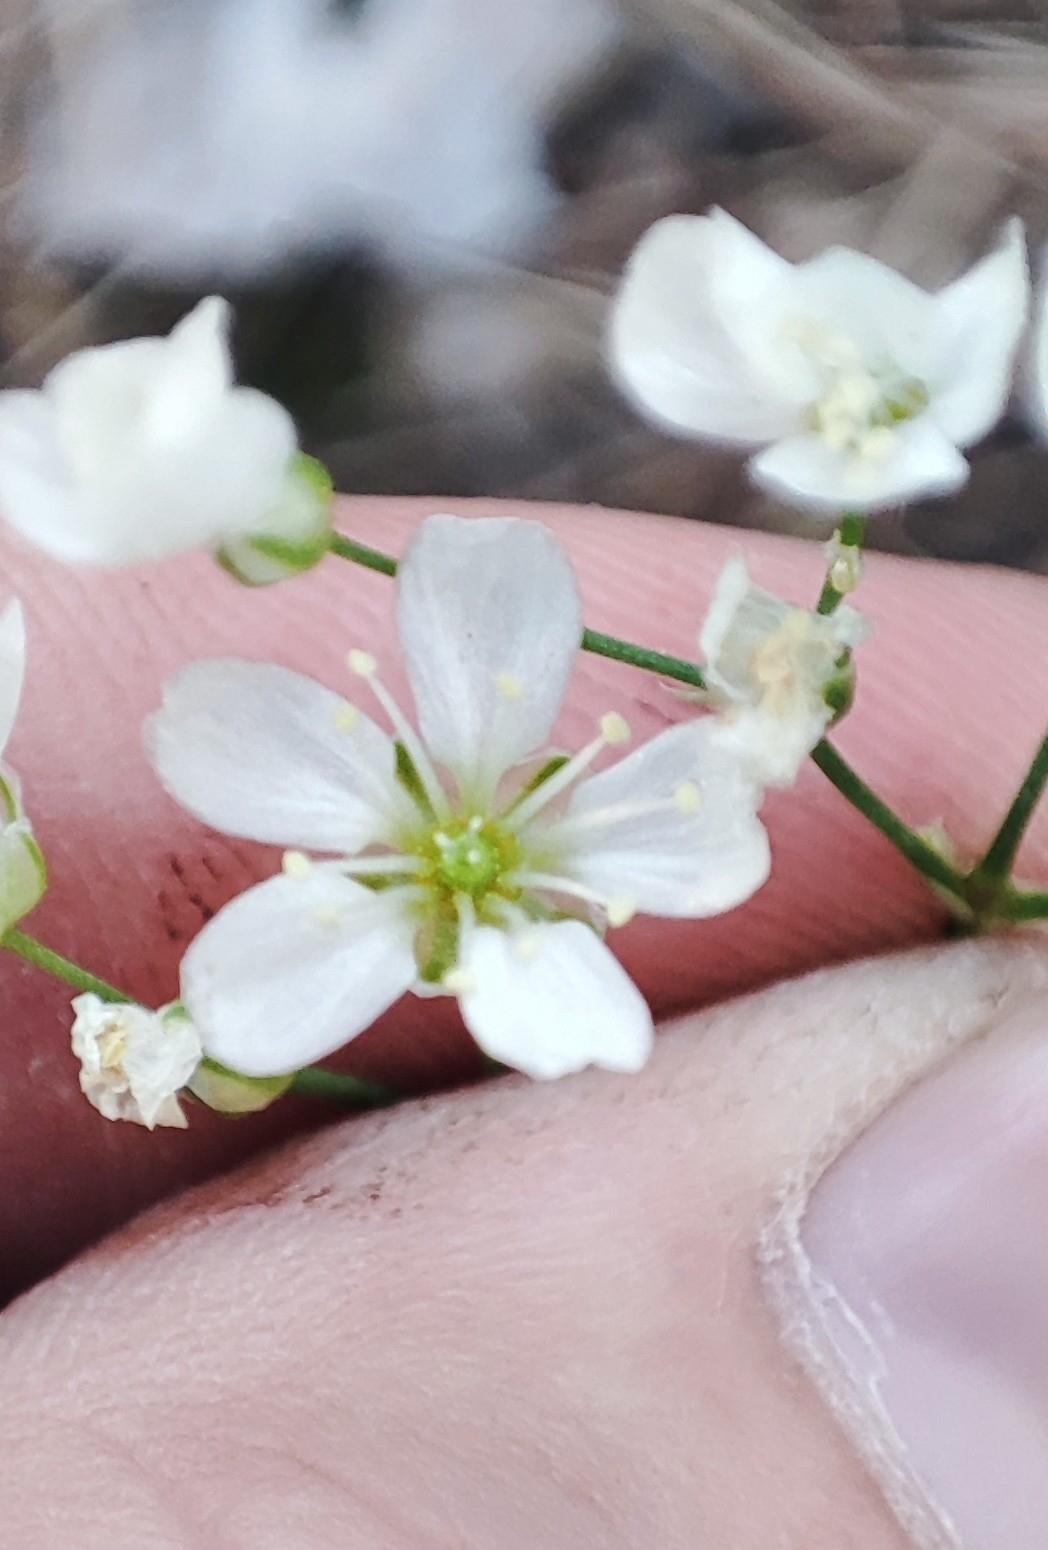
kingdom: Plantae
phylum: Tracheophyta
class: Magnoliopsida
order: Caryophyllales
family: Caryophyllaceae
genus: Eremogone
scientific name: Eremogone saxatilis
